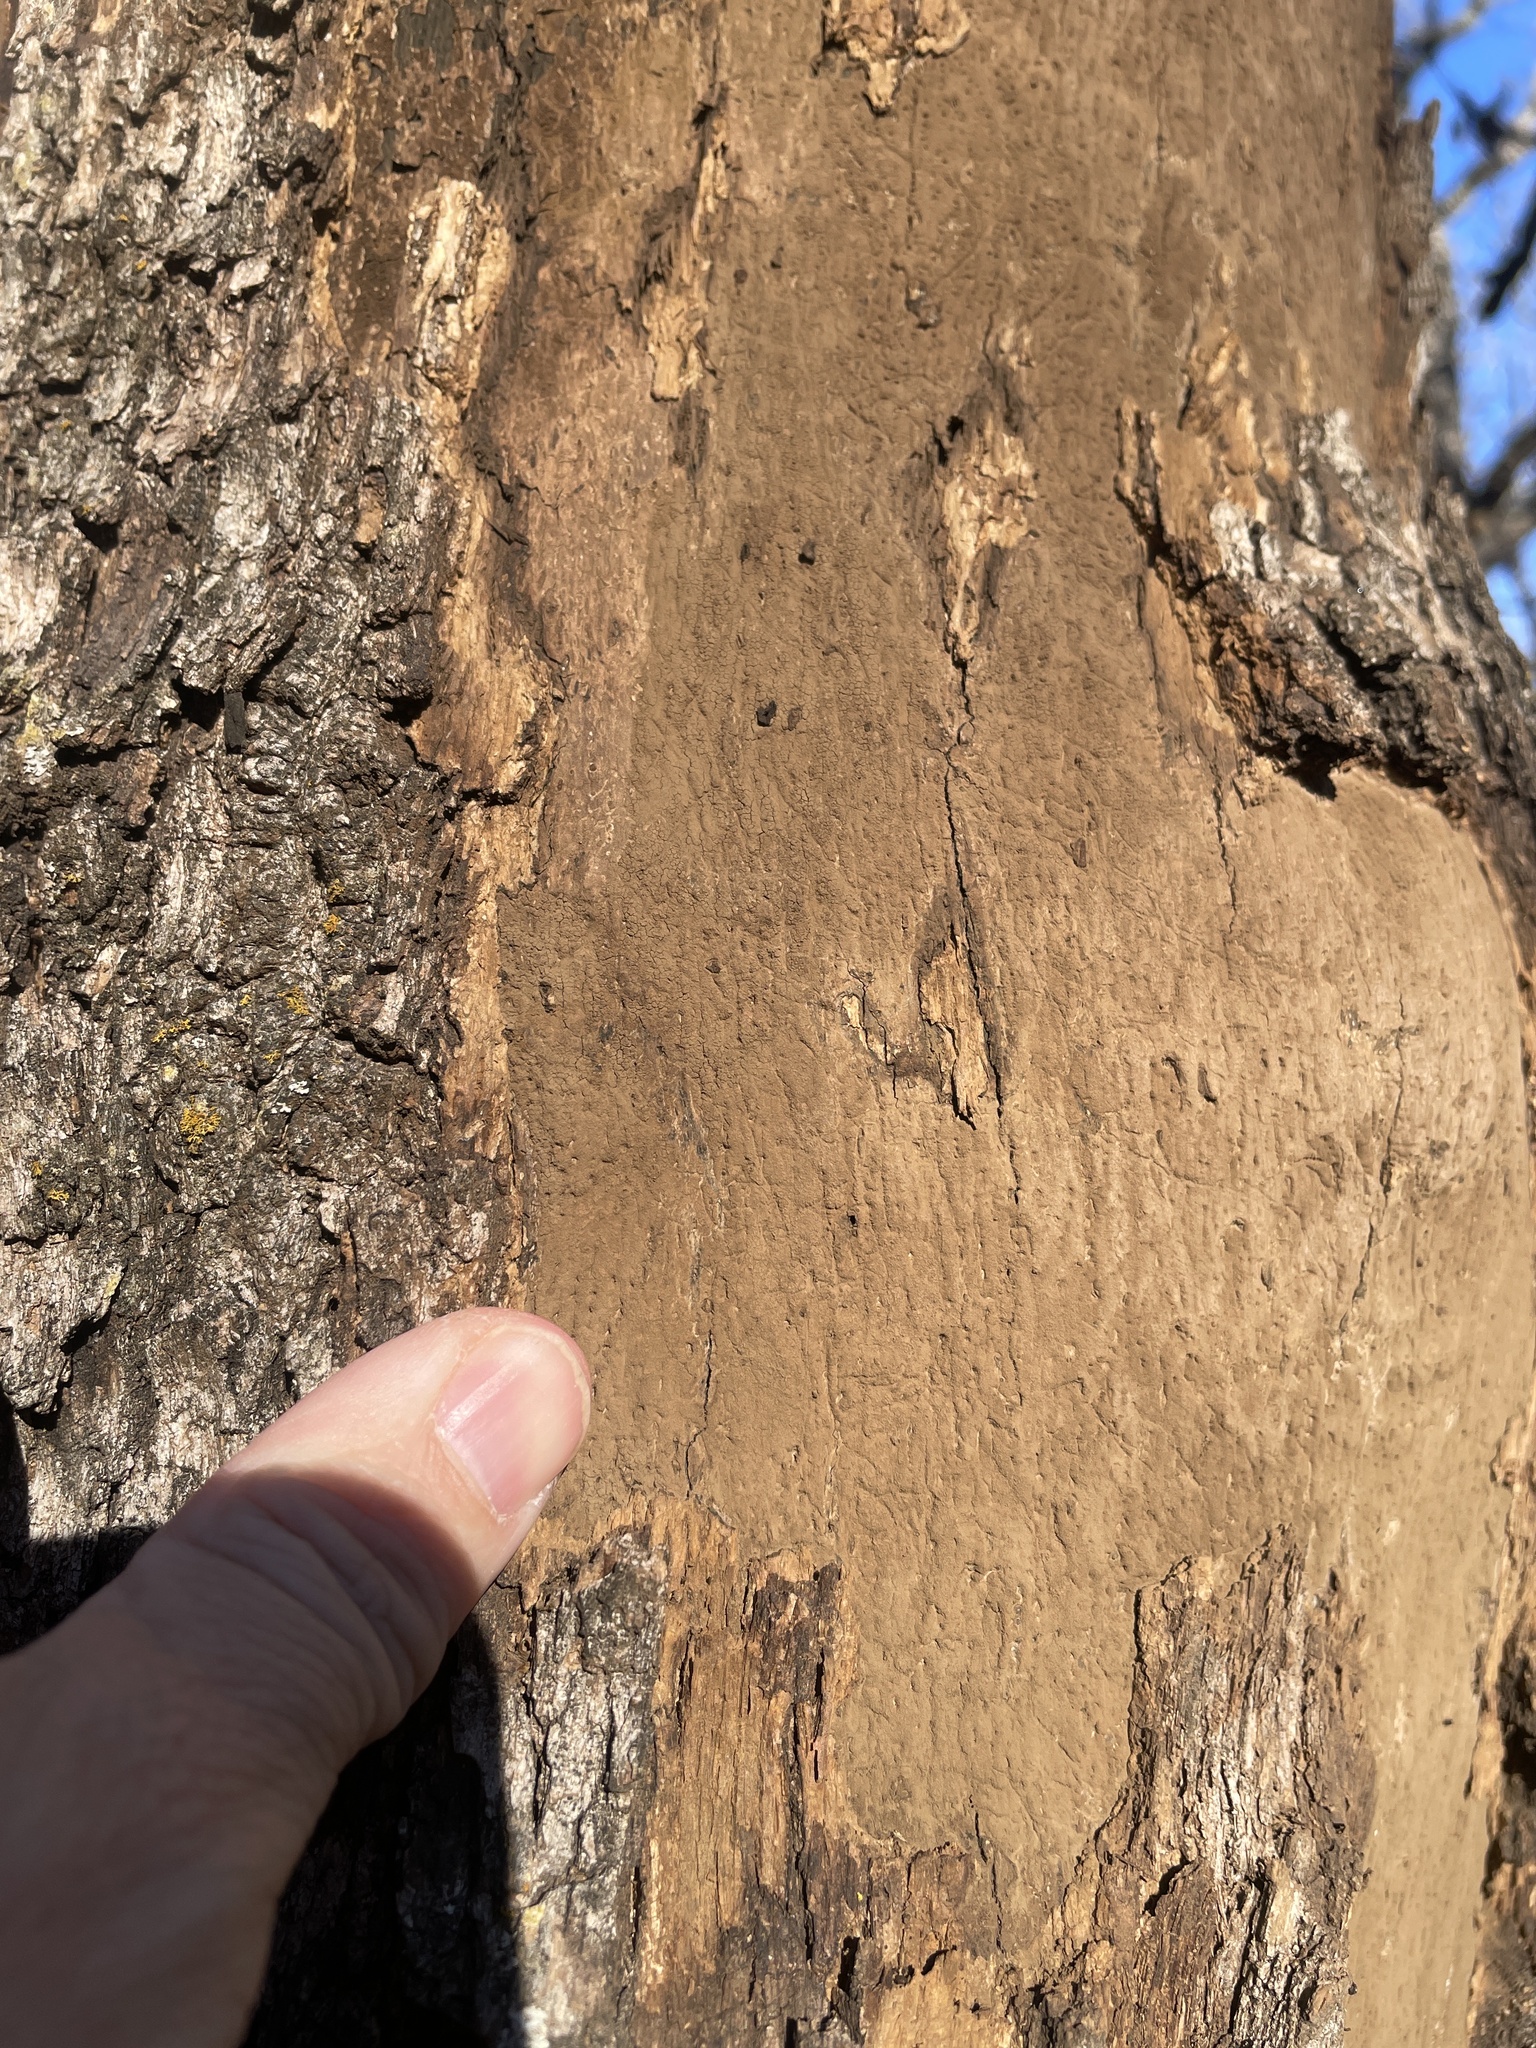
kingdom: Fungi
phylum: Ascomycota
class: Sordariomycetes
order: Xylariales
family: Graphostromataceae
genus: Biscogniauxia
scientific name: Biscogniauxia atropunctata
